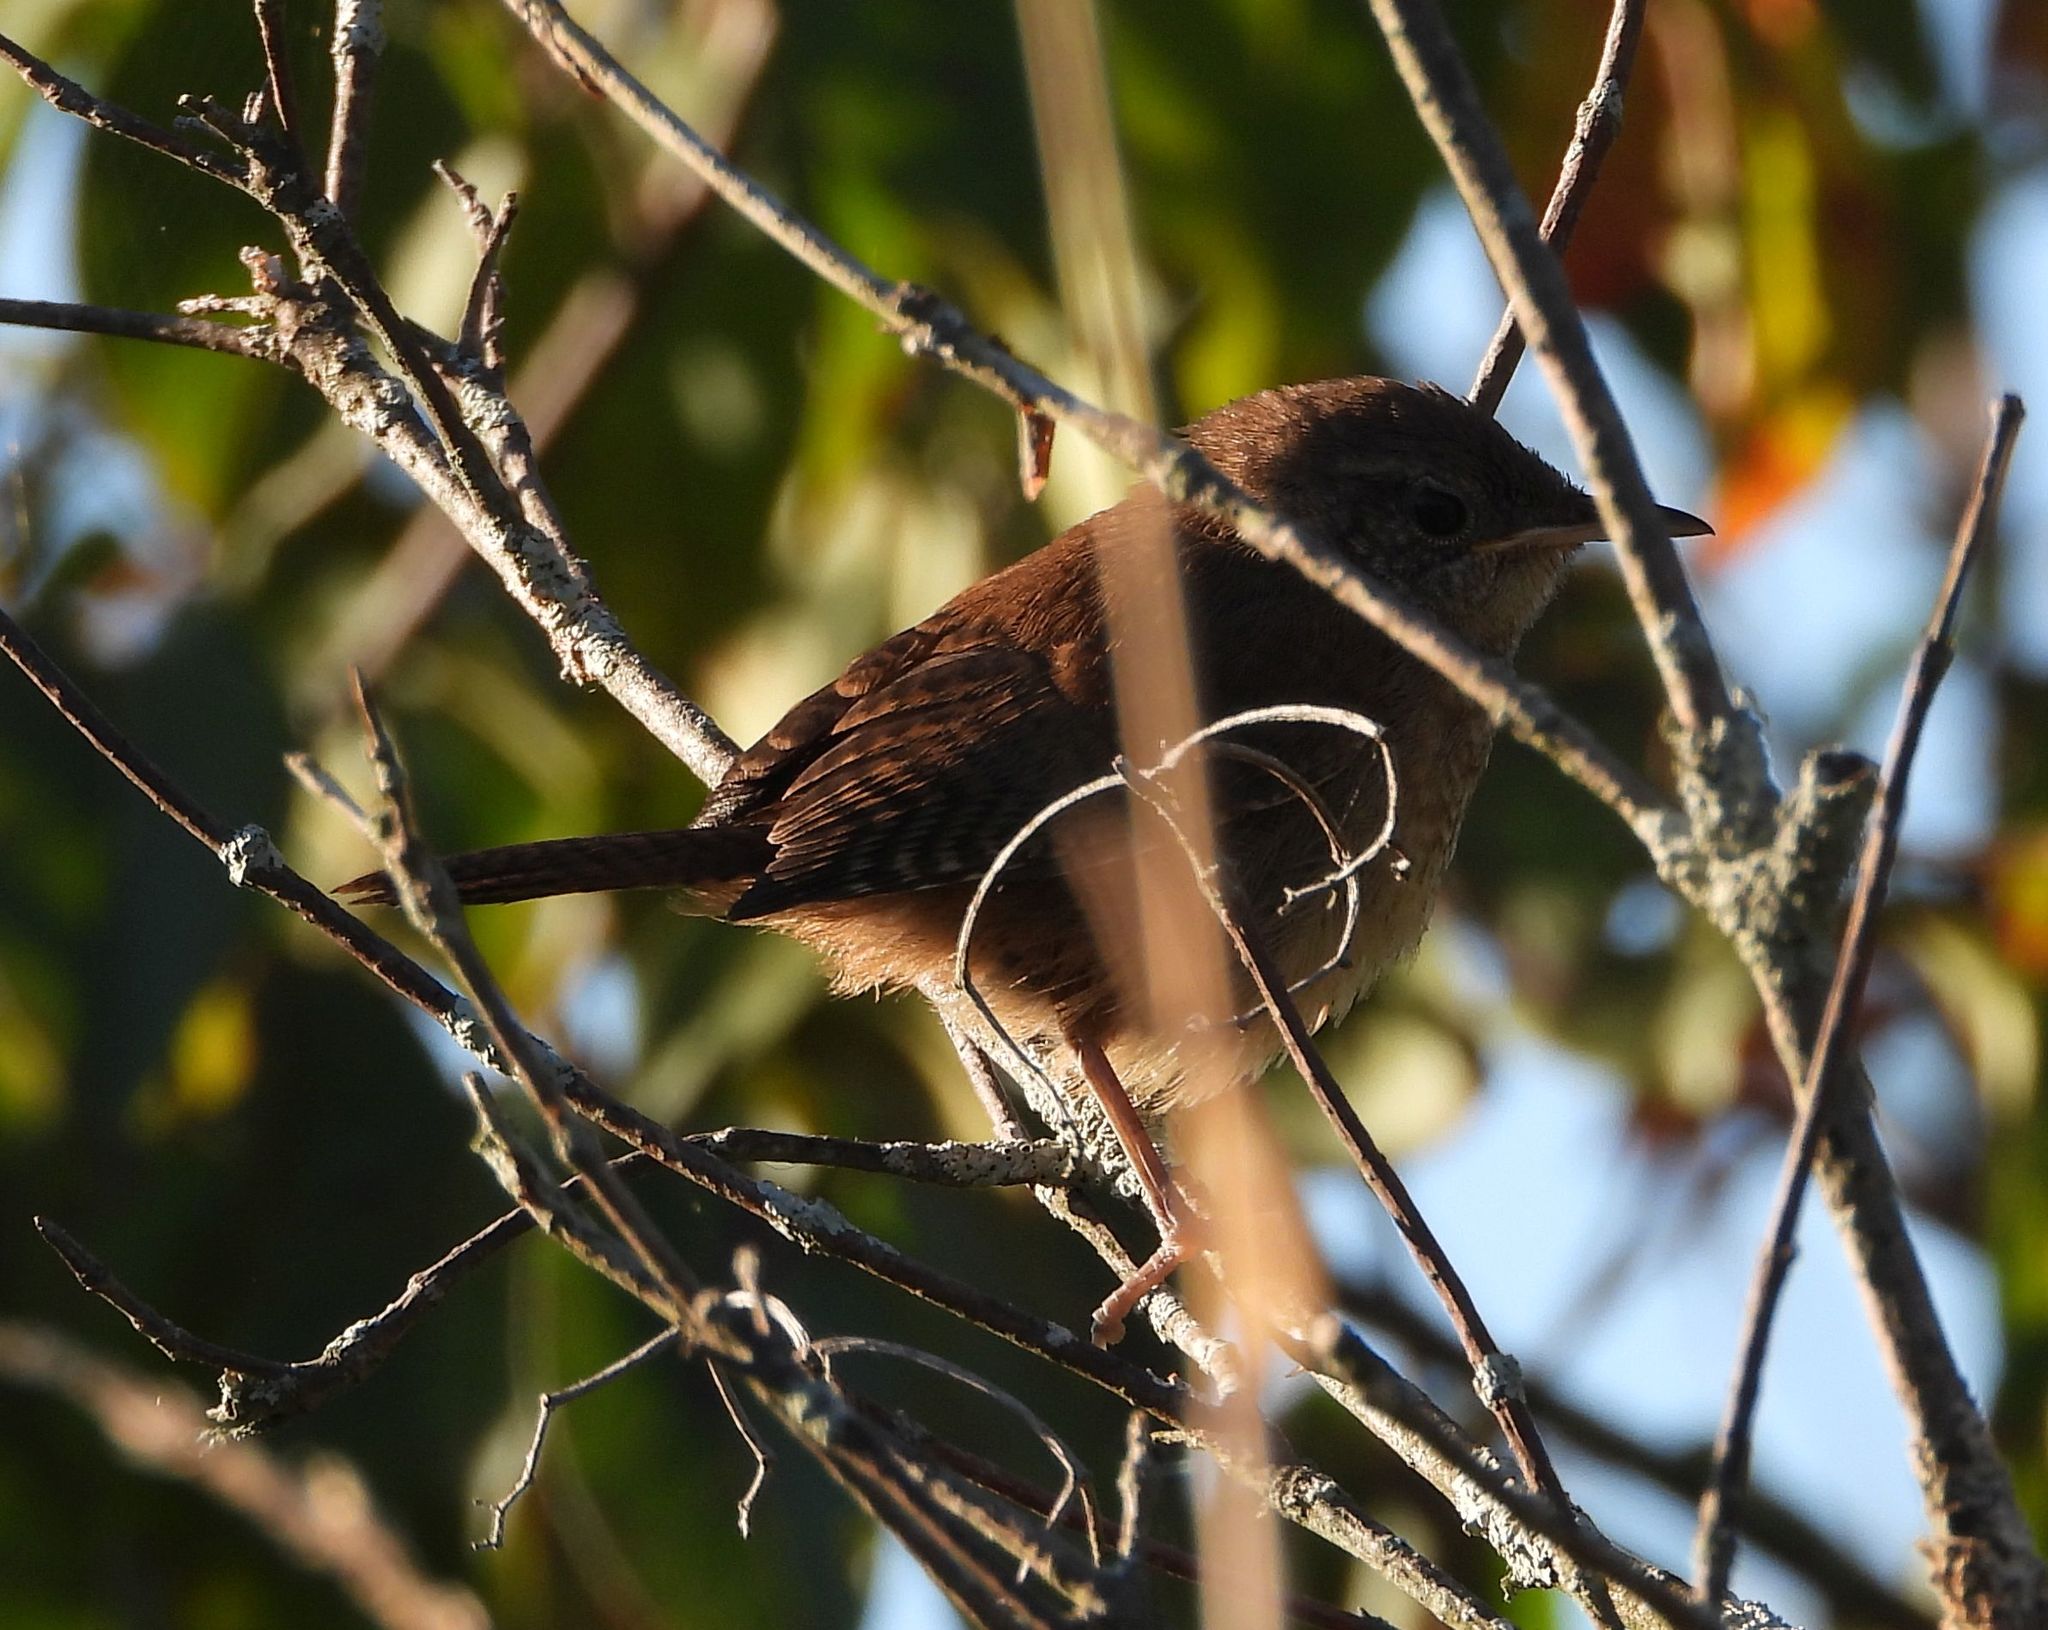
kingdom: Animalia
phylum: Chordata
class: Aves
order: Passeriformes
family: Troglodytidae
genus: Troglodytes
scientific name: Troglodytes aedon
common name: House wren
